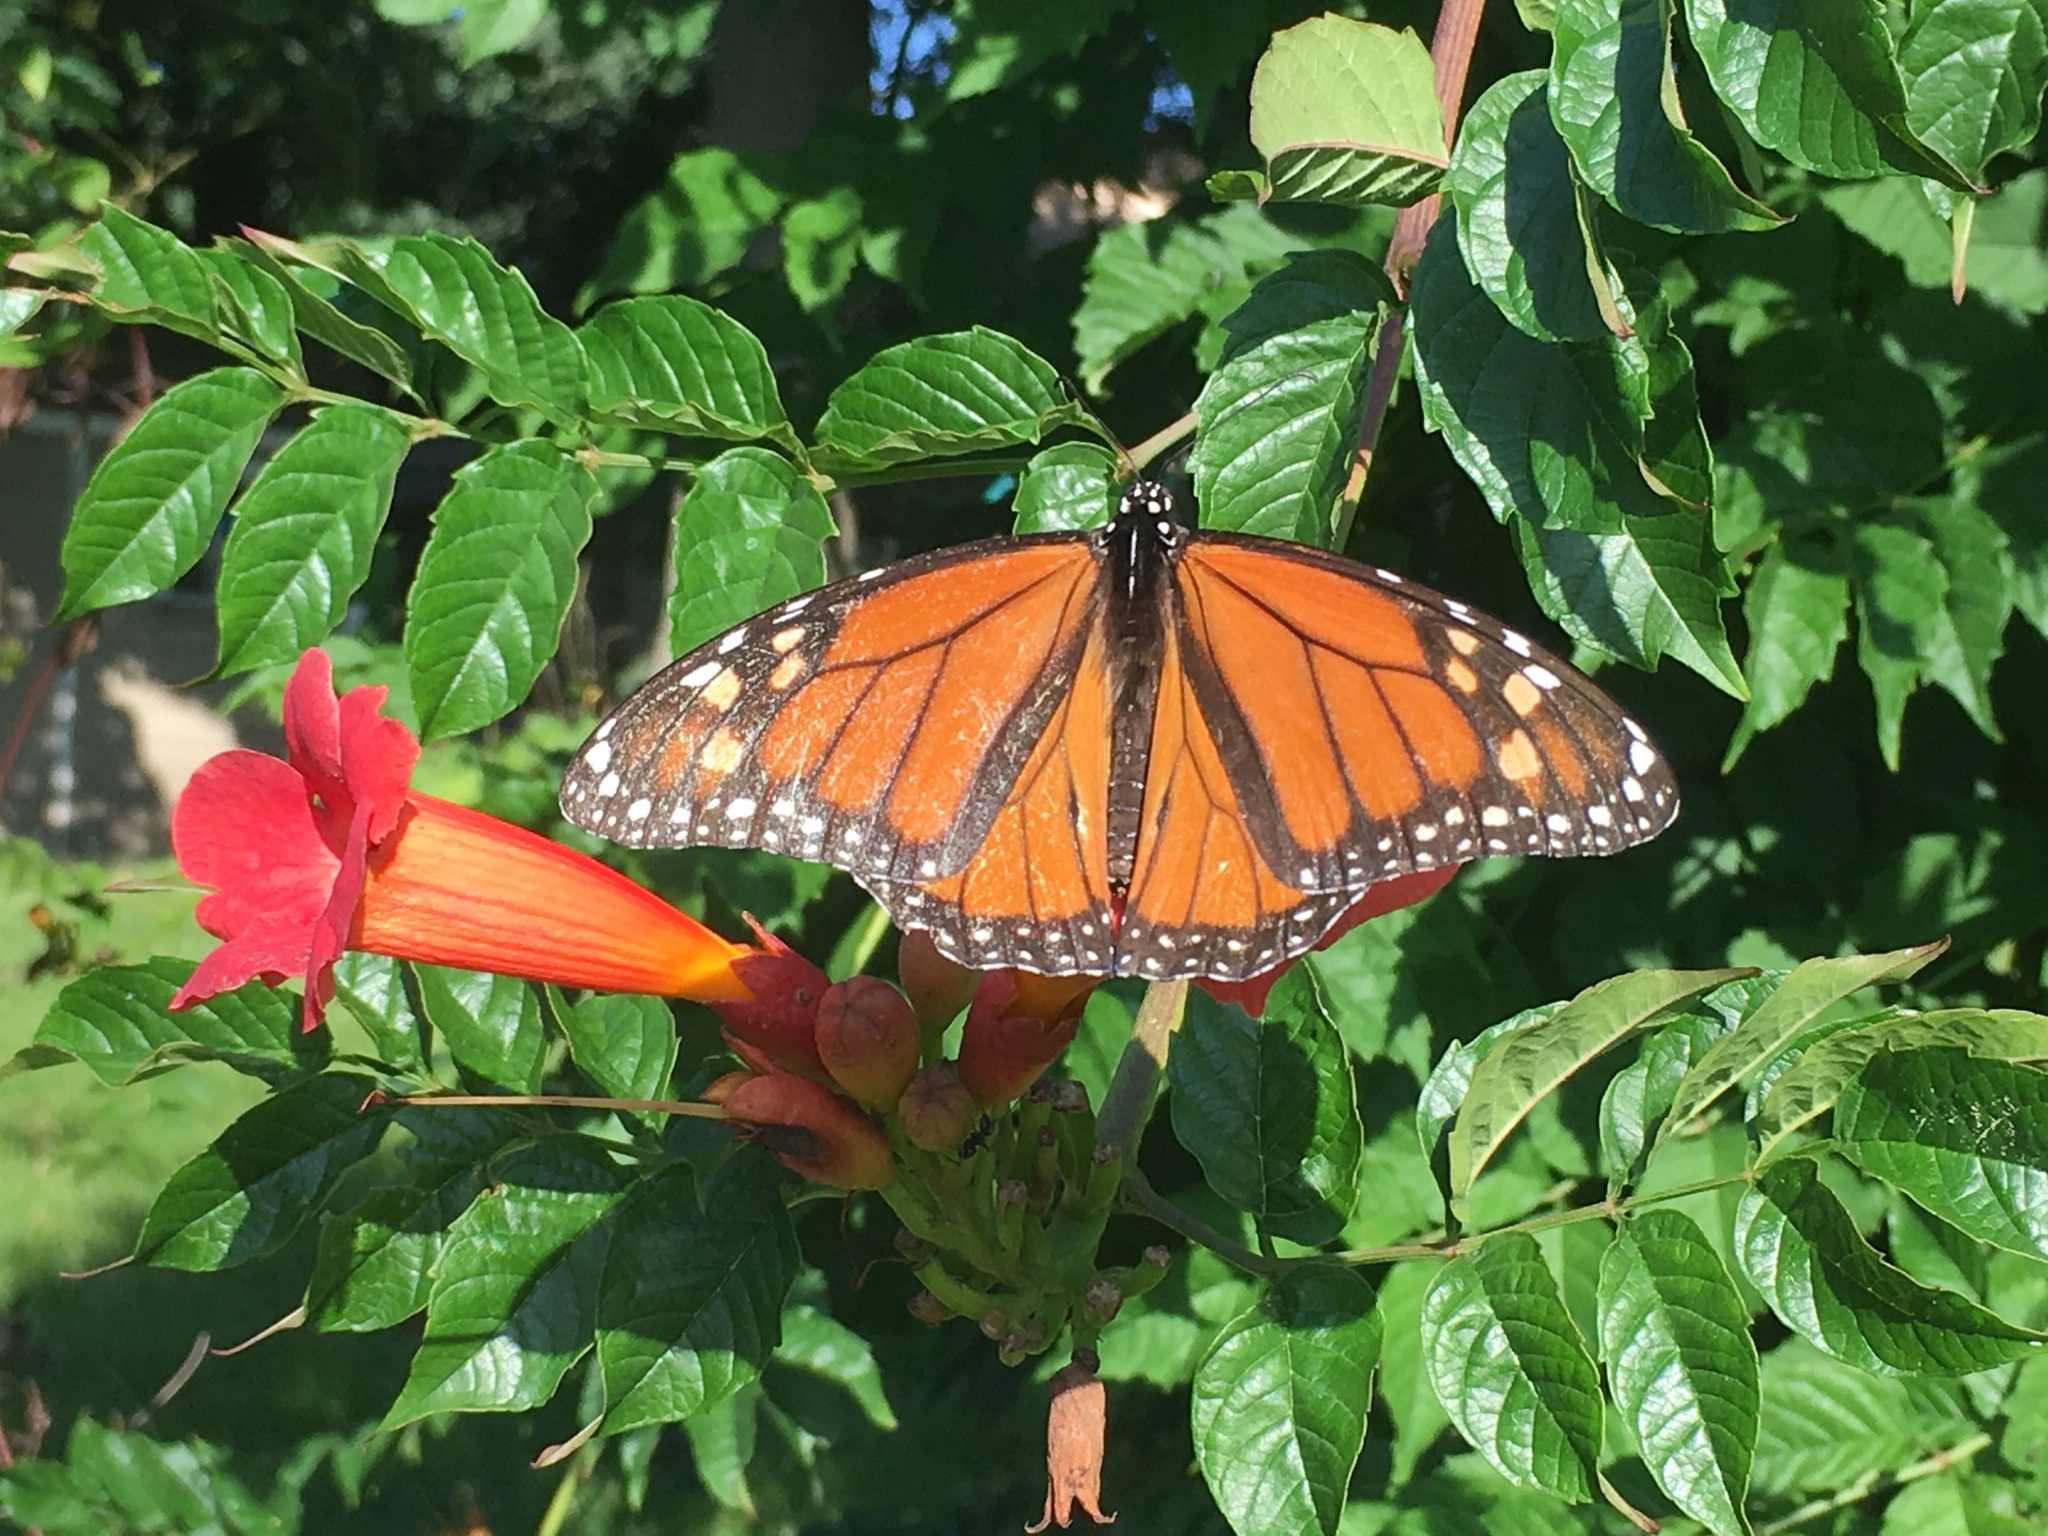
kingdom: Animalia
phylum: Arthropoda
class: Insecta
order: Lepidoptera
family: Nymphalidae
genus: Danaus
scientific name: Danaus plexippus
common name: Monarch
